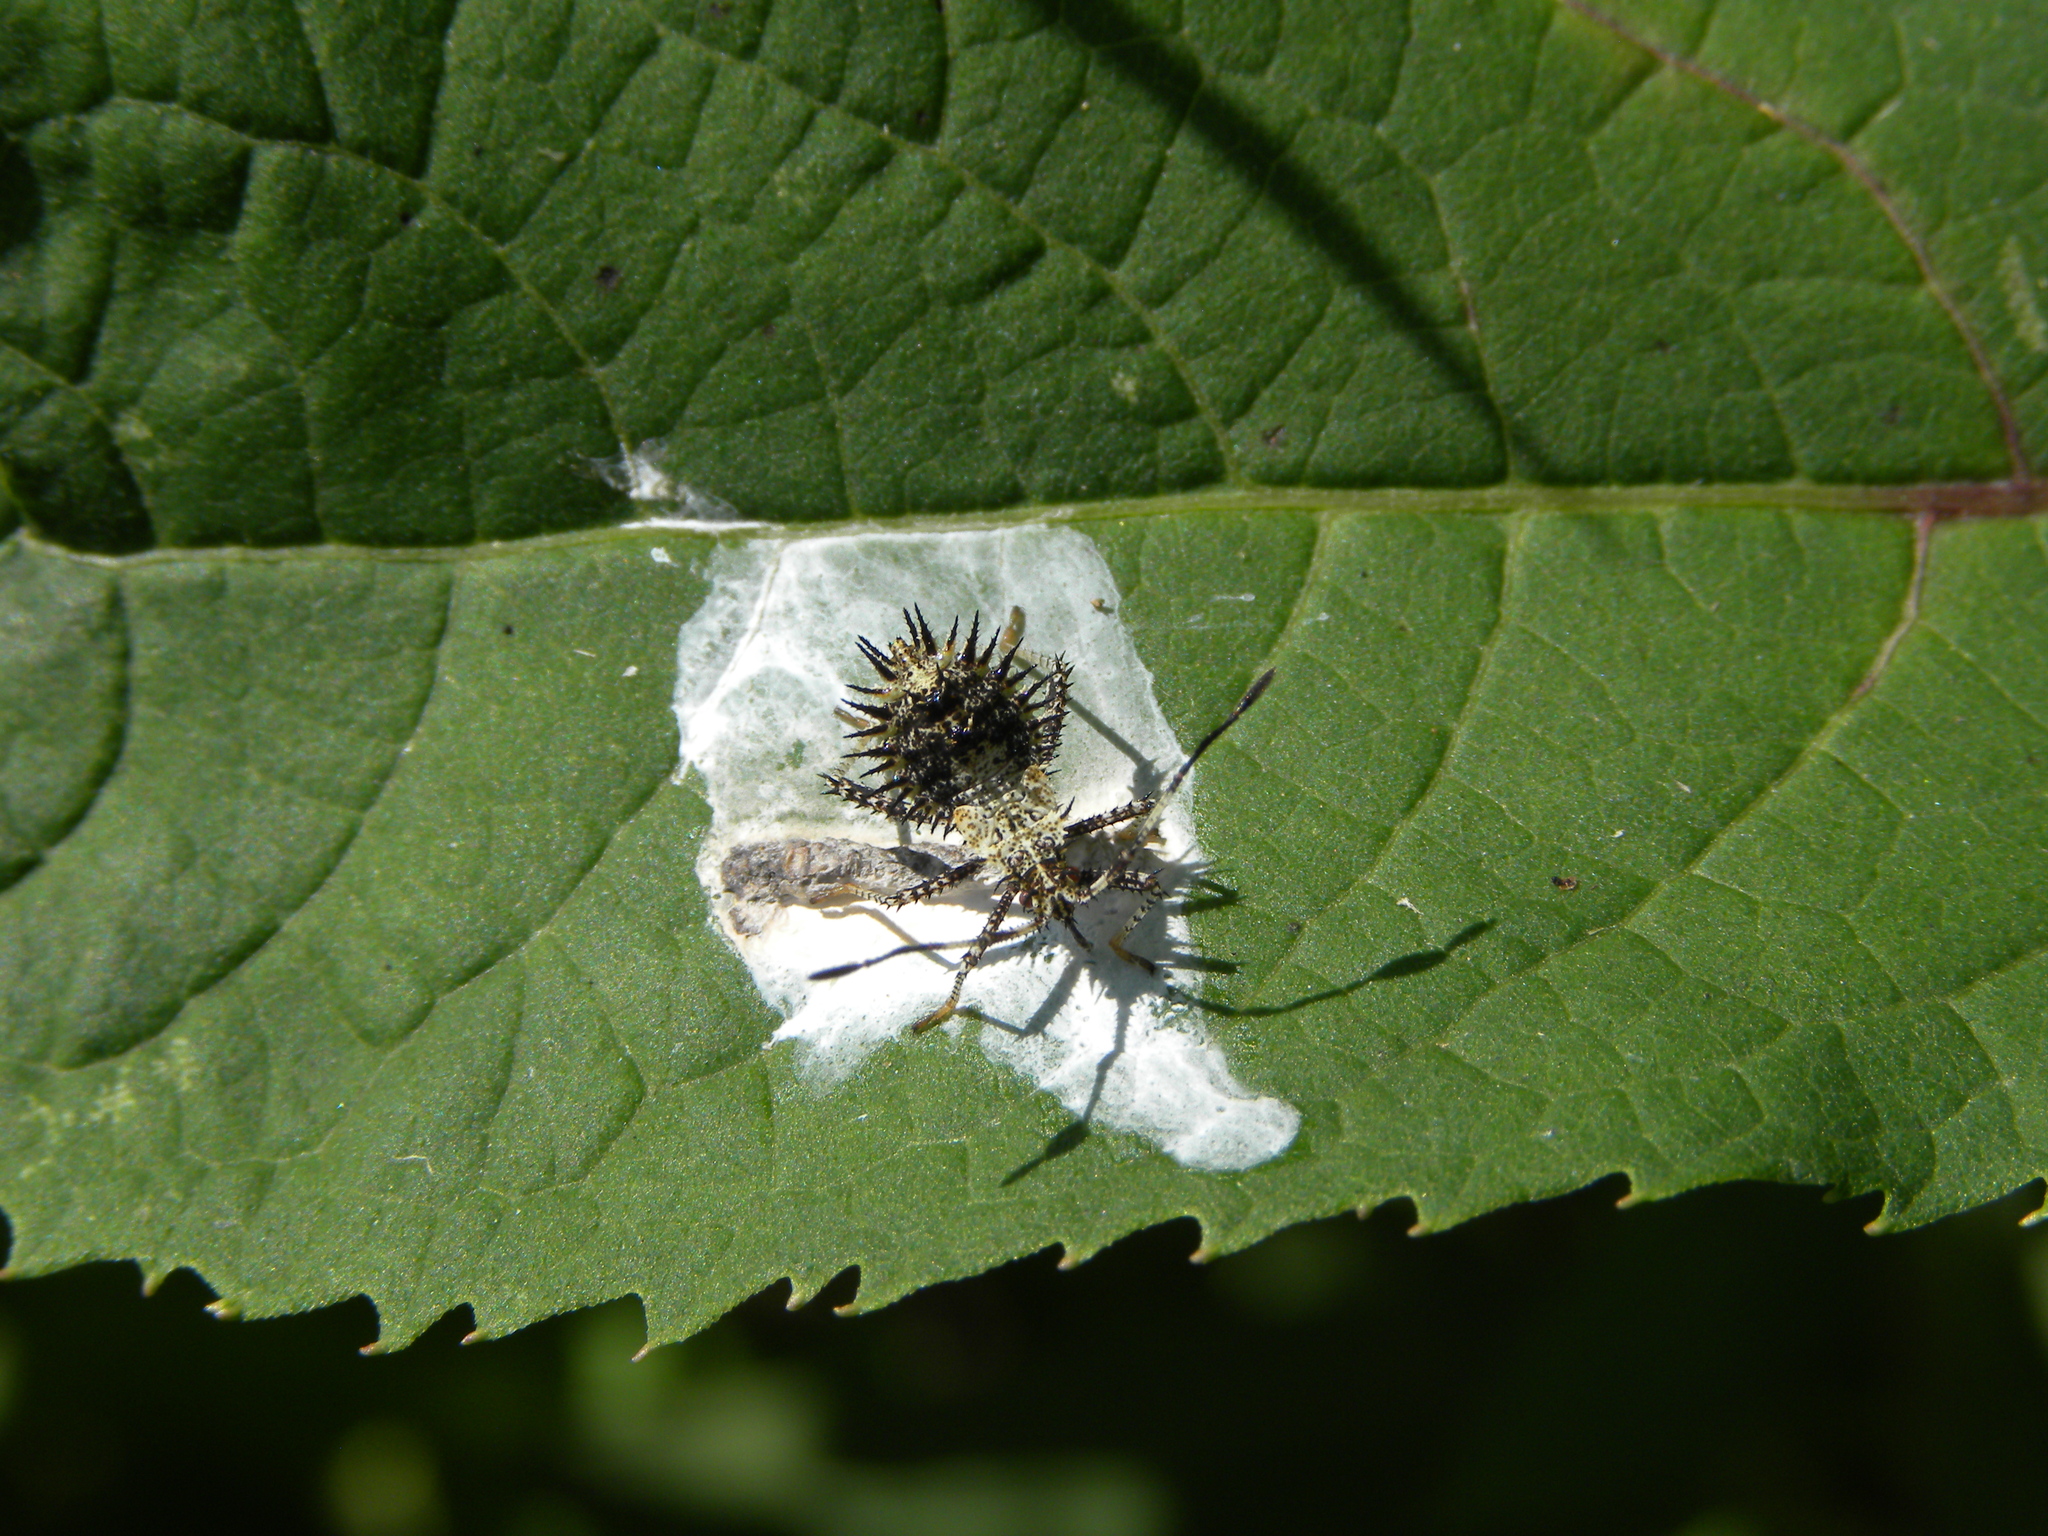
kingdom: Animalia
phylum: Arthropoda
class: Insecta
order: Hemiptera
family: Coreidae
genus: Euthochtha
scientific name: Euthochtha galeator
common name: Helmeted squash bug
